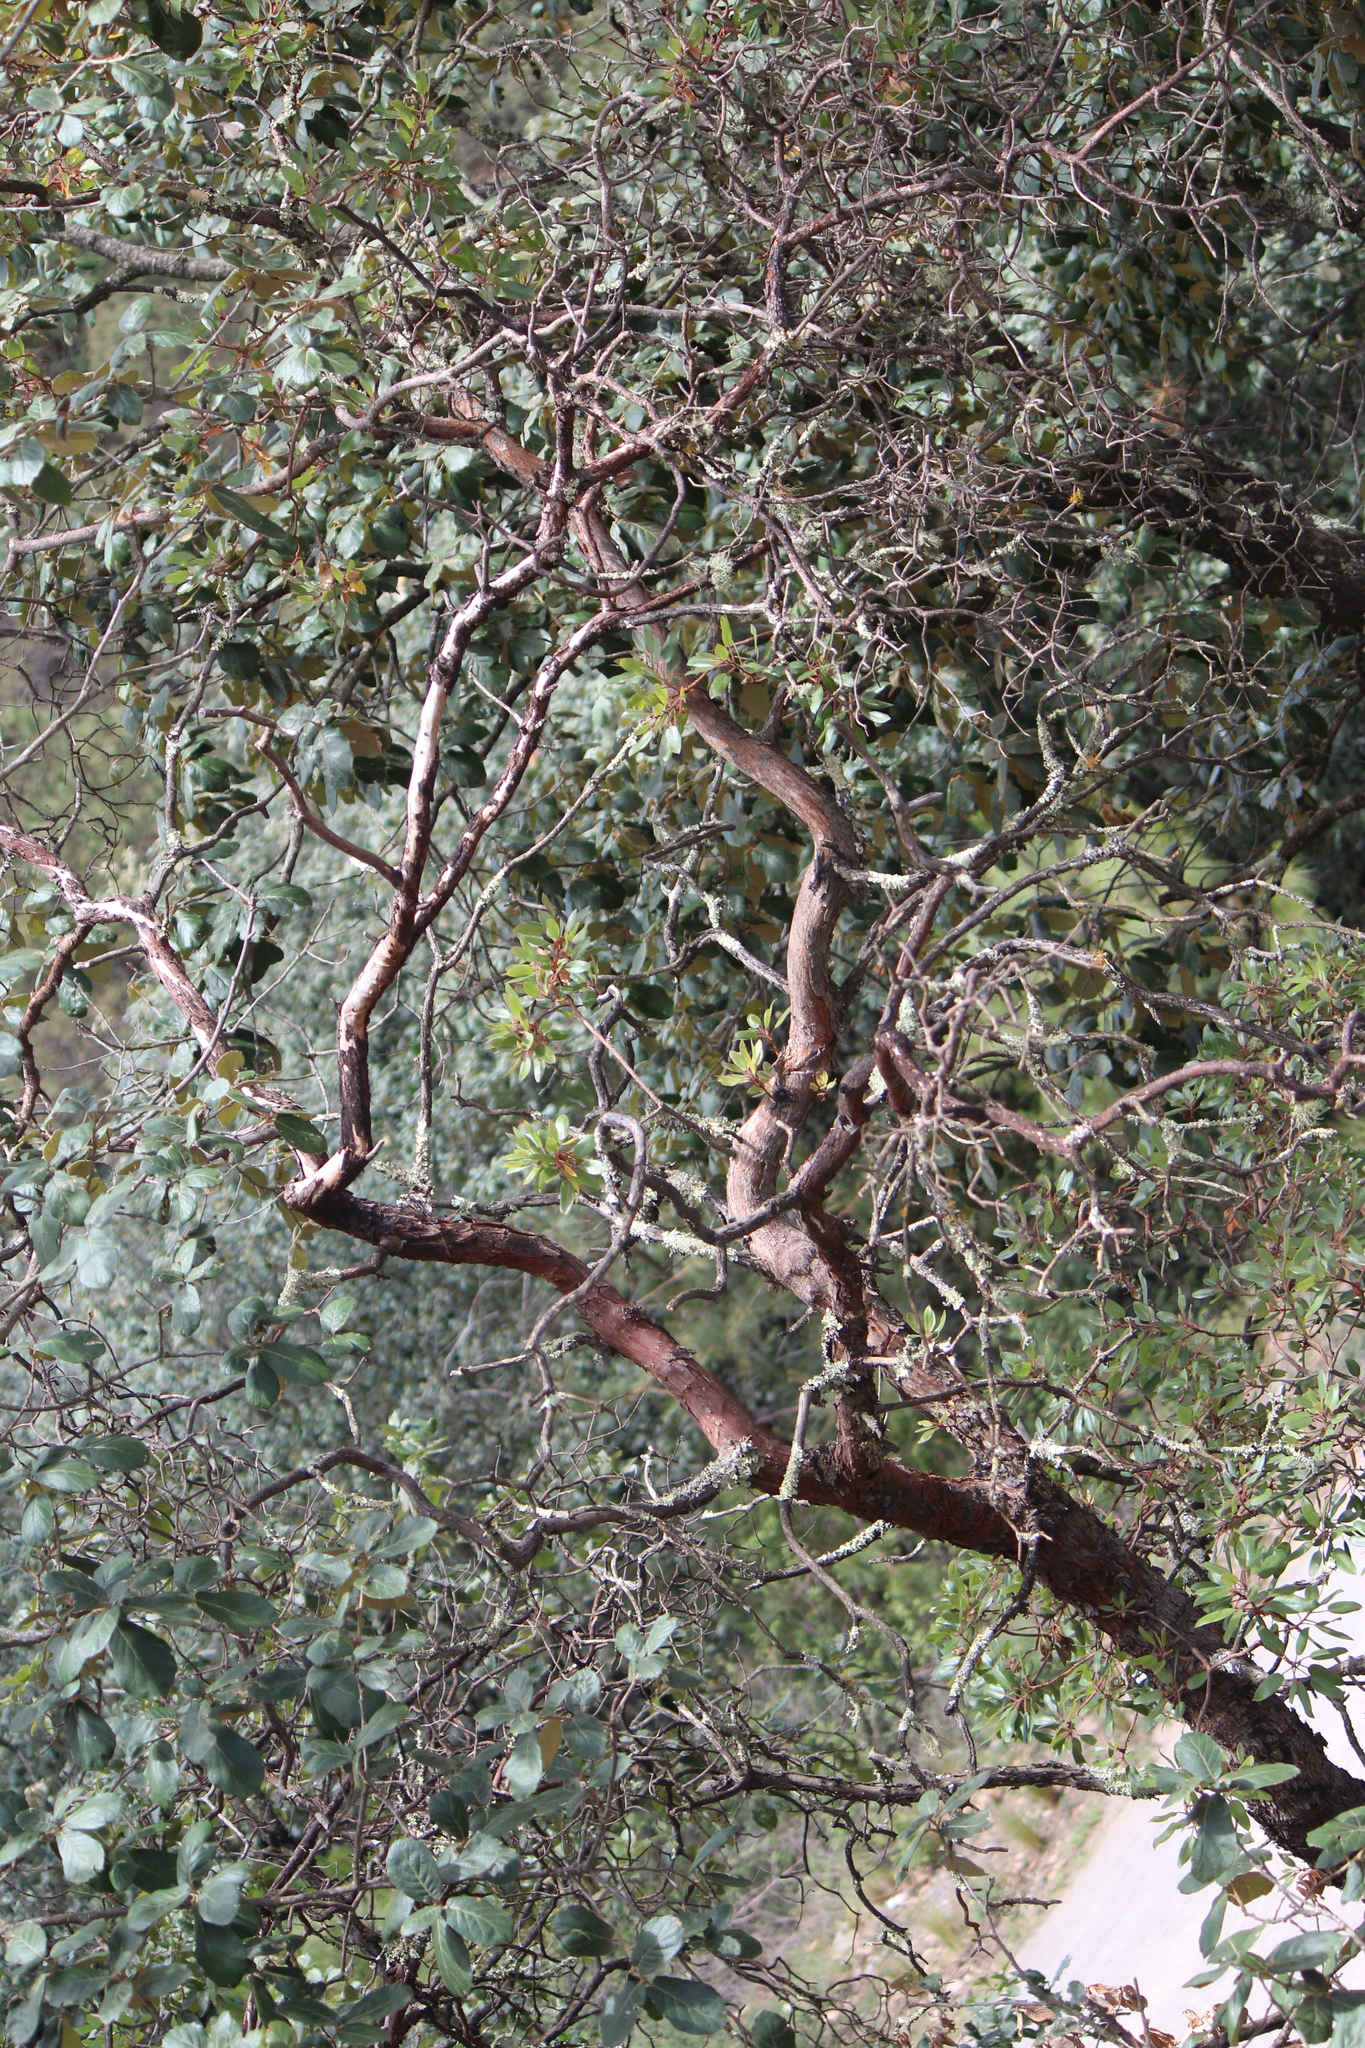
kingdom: Plantae
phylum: Tracheophyta
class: Magnoliopsida
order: Ericales
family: Ericaceae
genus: Arbutus
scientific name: Arbutus xalapensis
